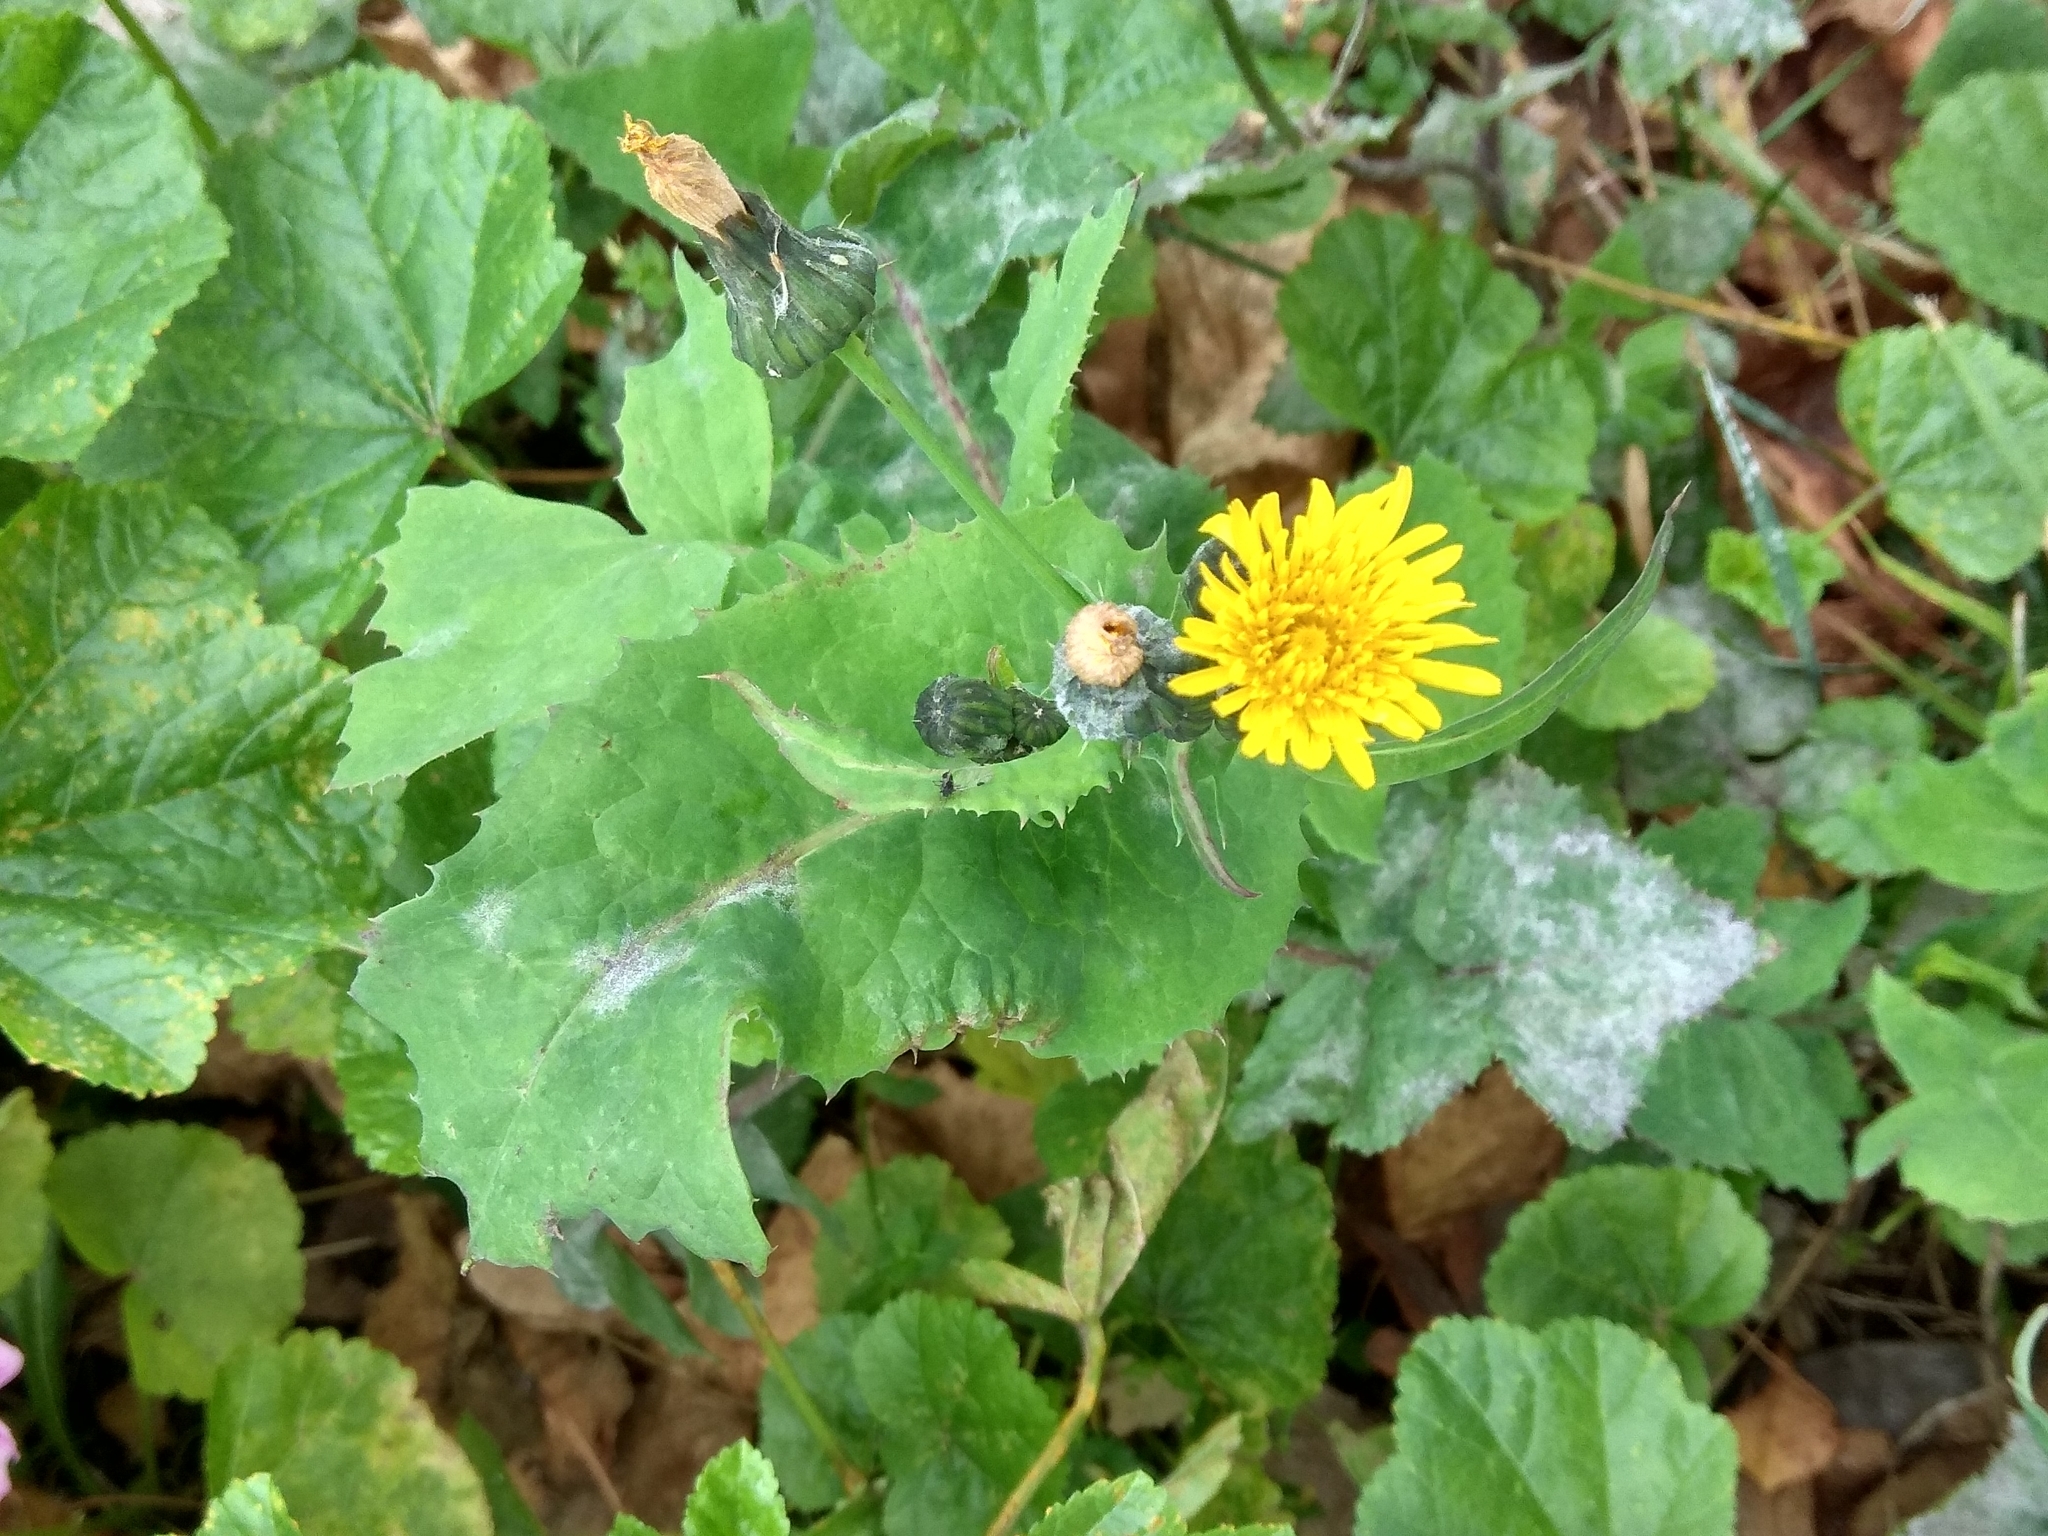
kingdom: Plantae
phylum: Tracheophyta
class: Magnoliopsida
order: Asterales
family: Asteraceae
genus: Sonchus
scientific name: Sonchus oleraceus
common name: Common sowthistle
